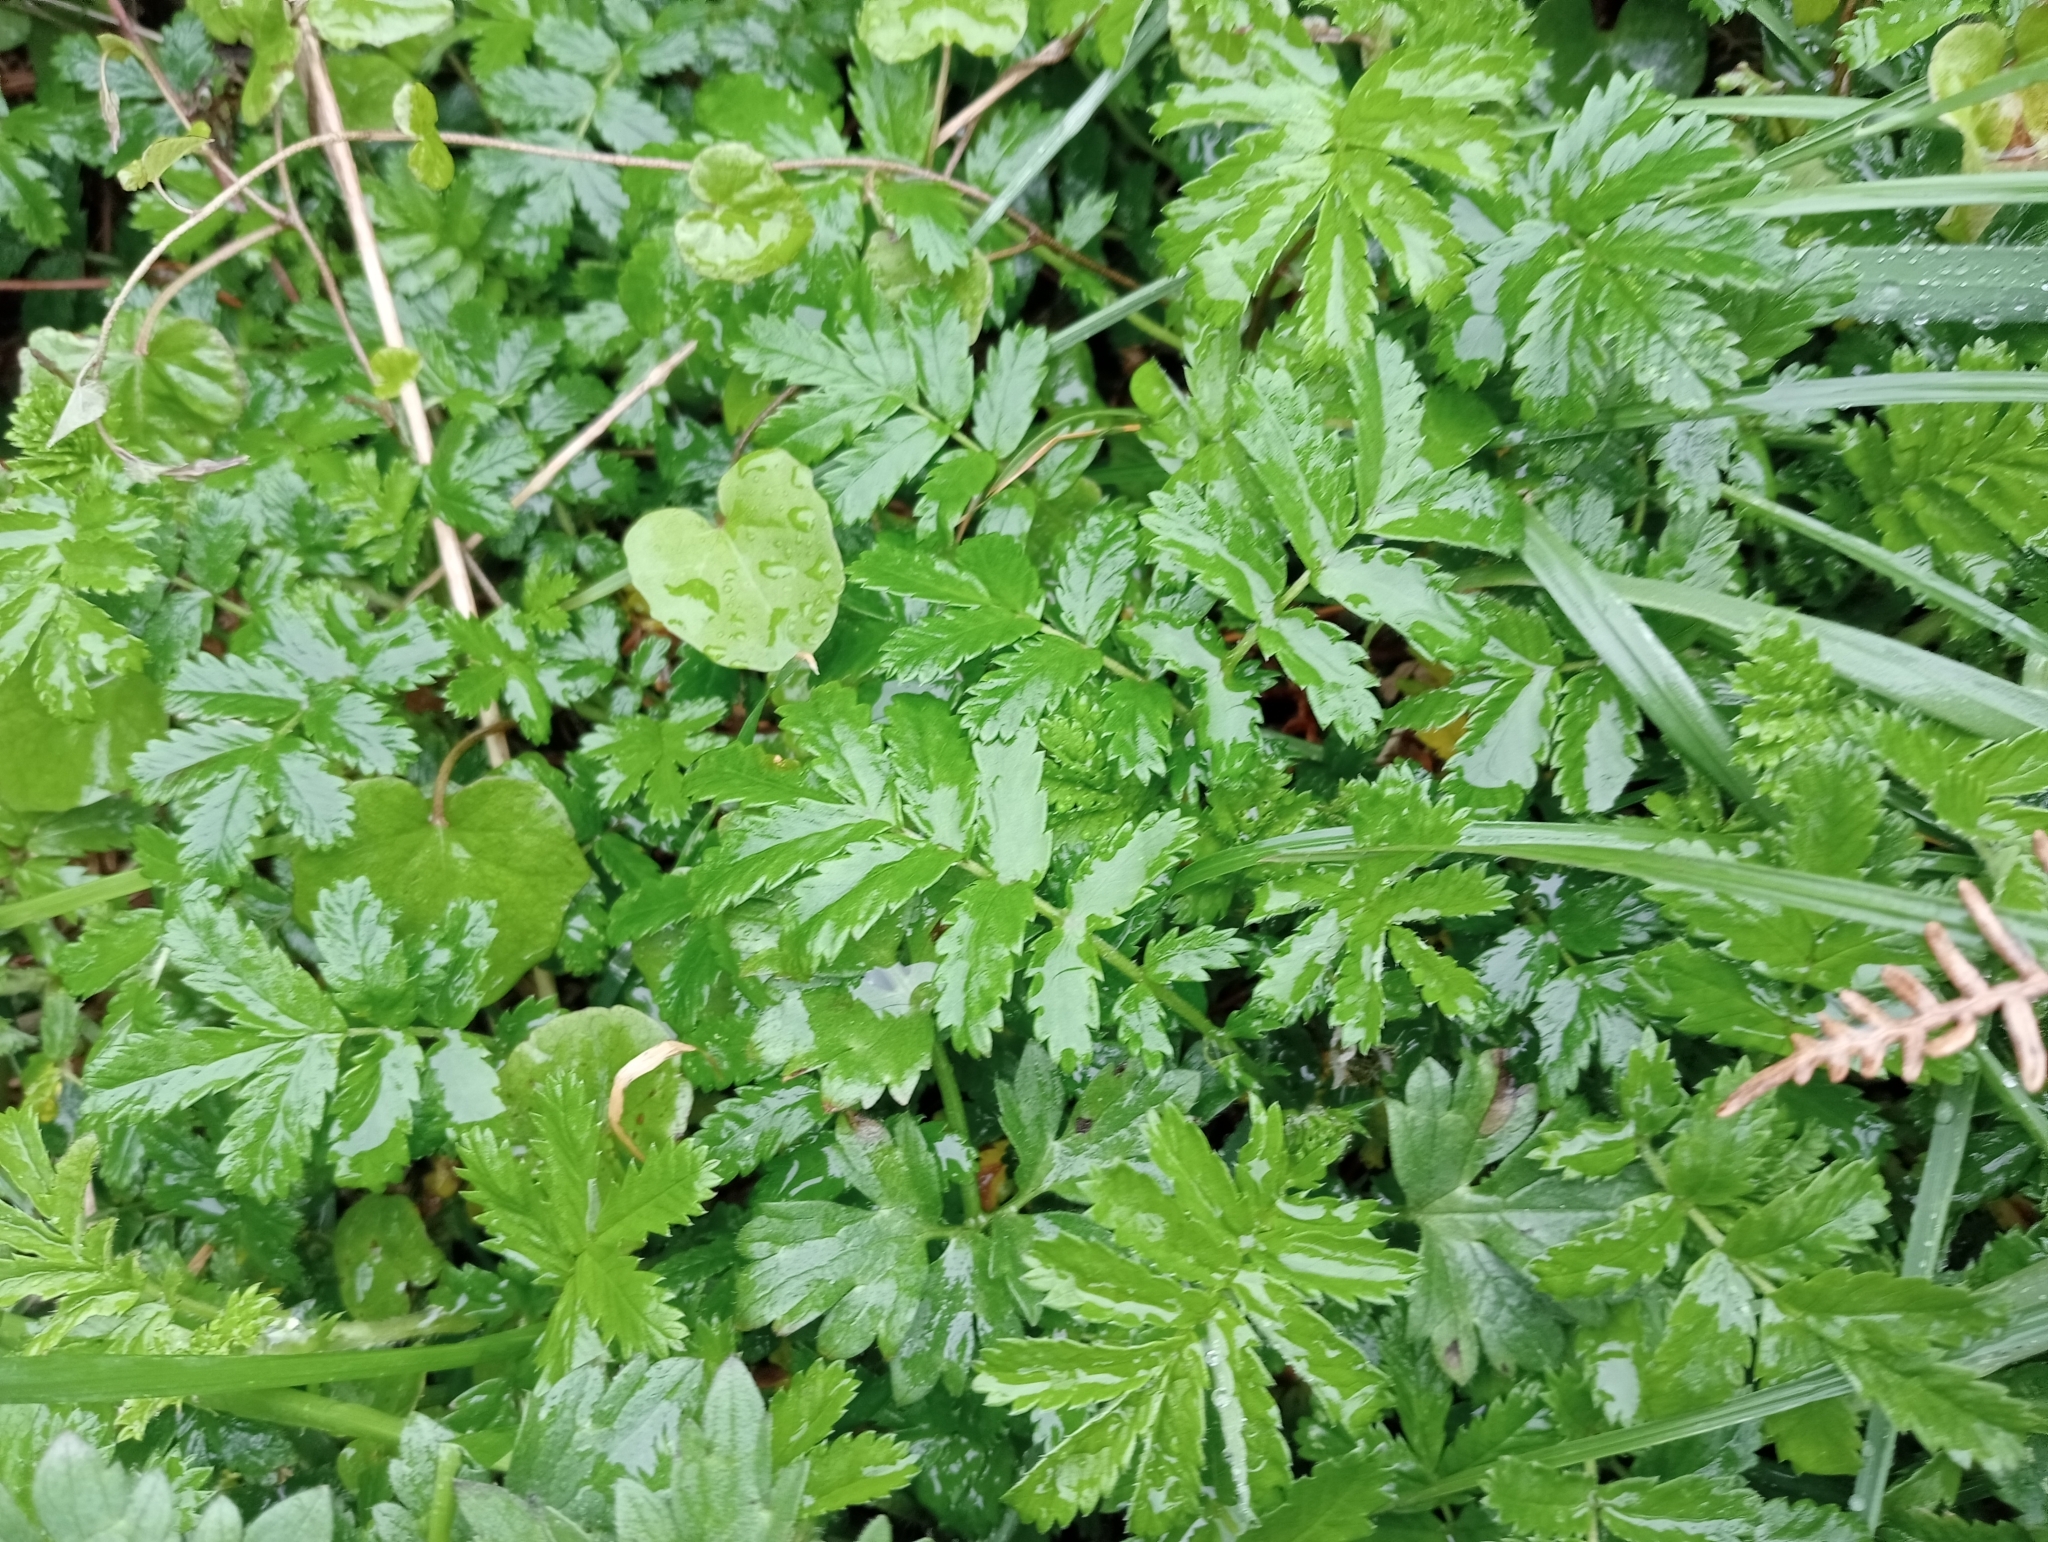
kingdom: Plantae
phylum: Tracheophyta
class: Magnoliopsida
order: Rosales
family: Rosaceae
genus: Acaena
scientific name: Acaena pallida
